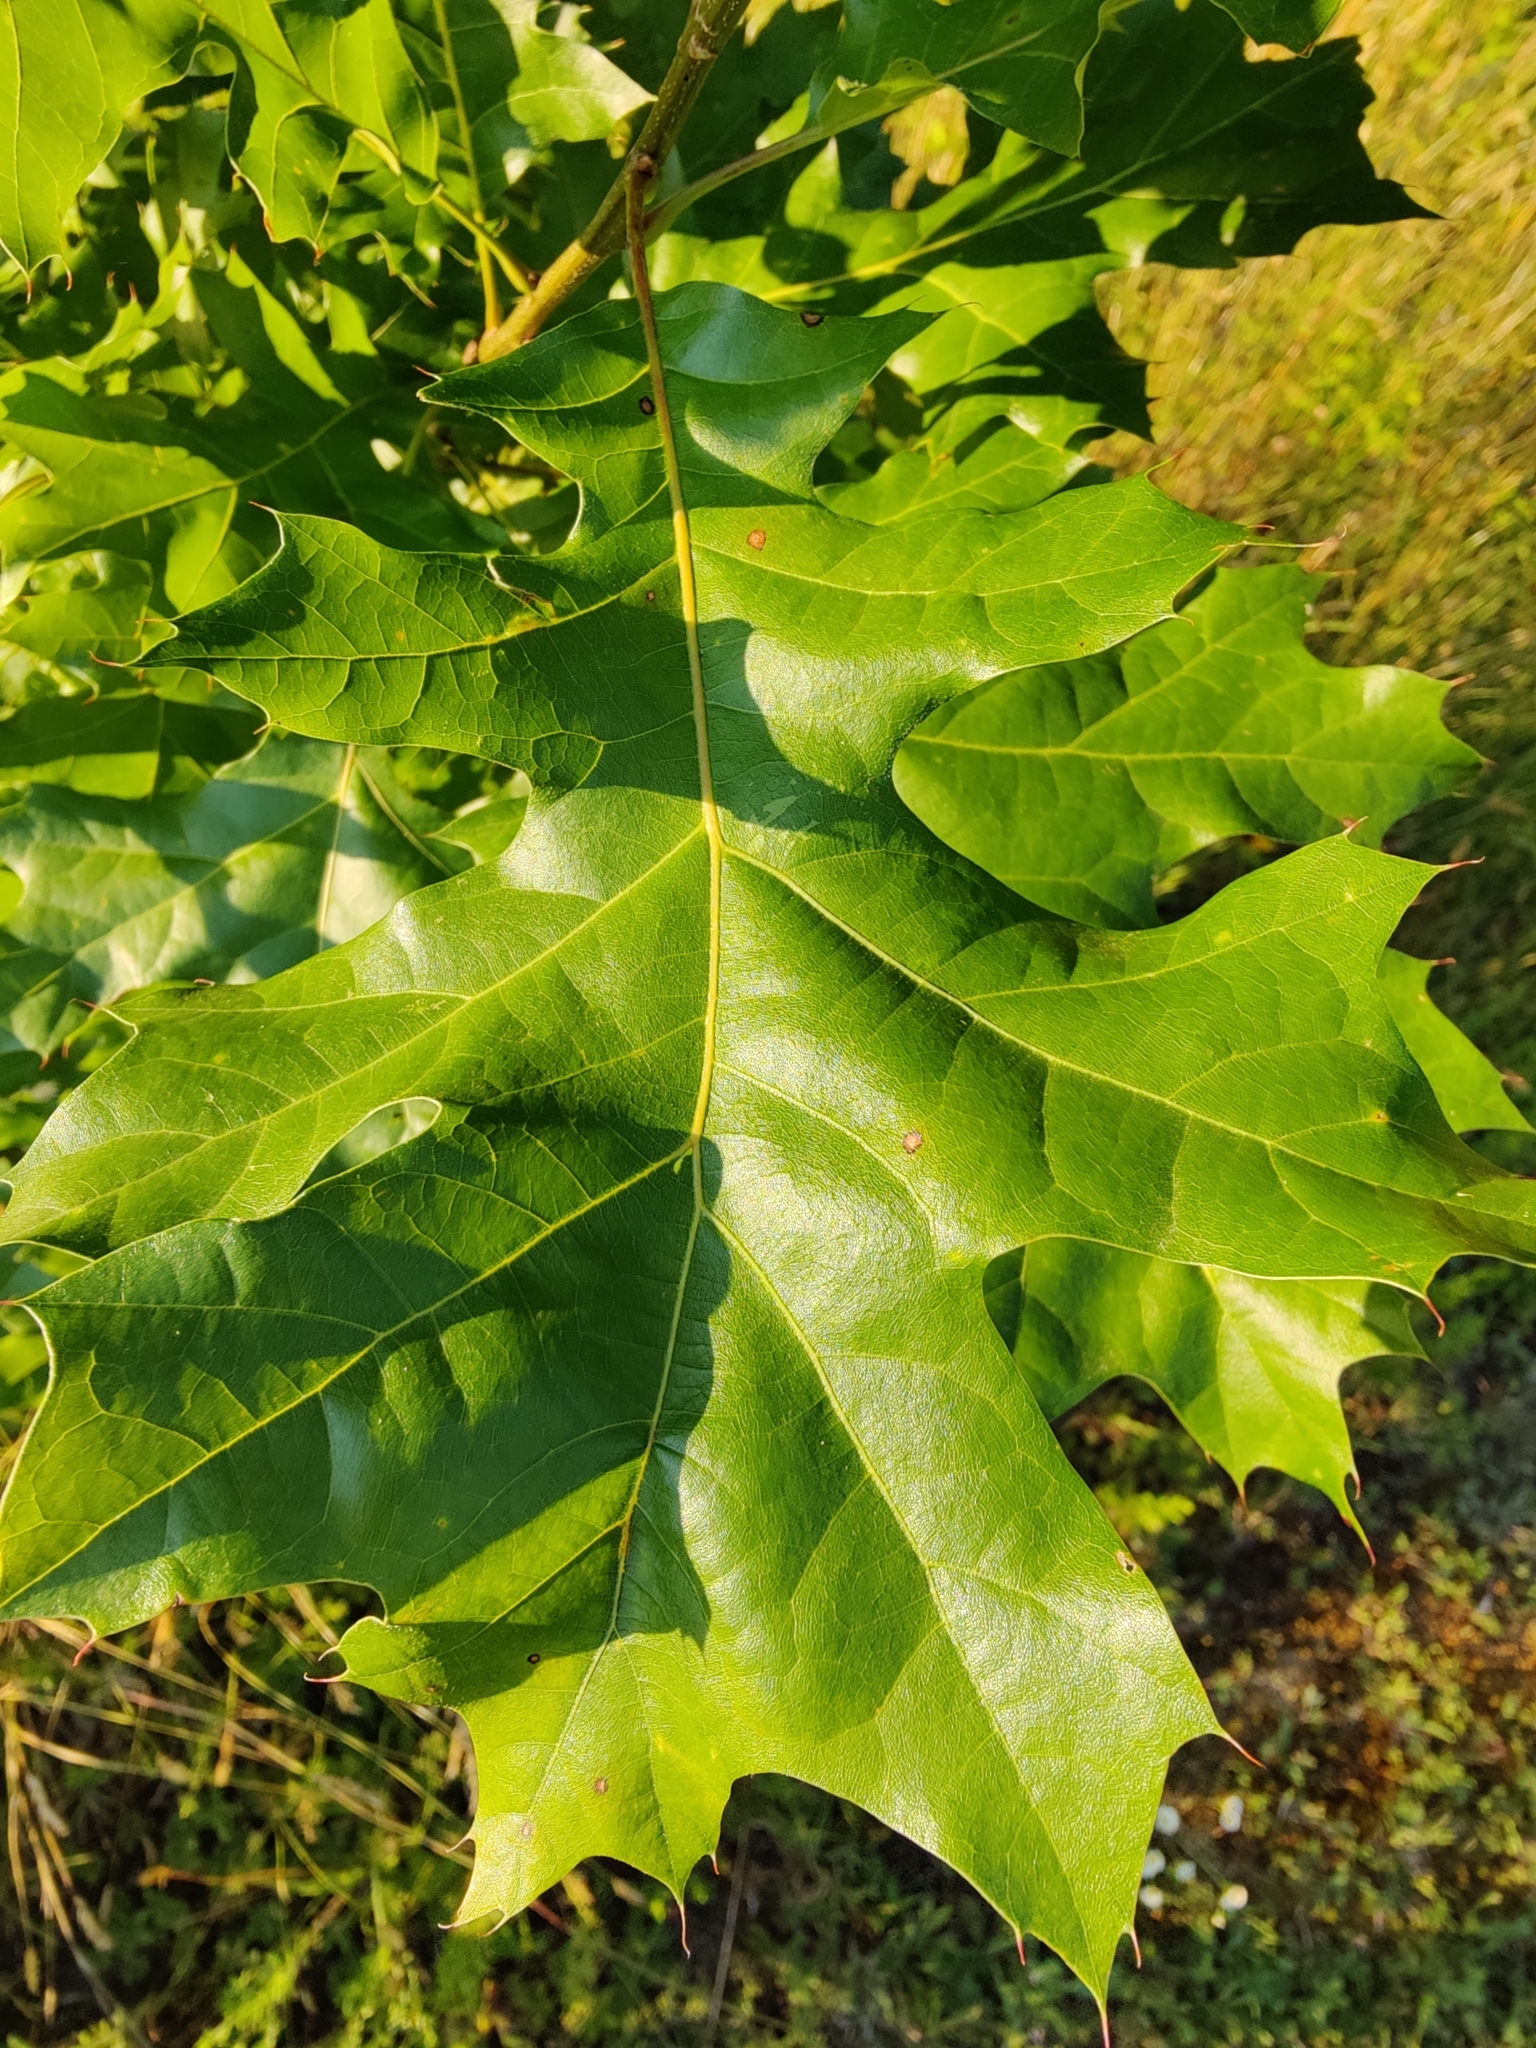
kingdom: Plantae
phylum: Tracheophyta
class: Magnoliopsida
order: Fagales
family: Fagaceae
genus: Quercus
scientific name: Quercus velutina
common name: Black oak
